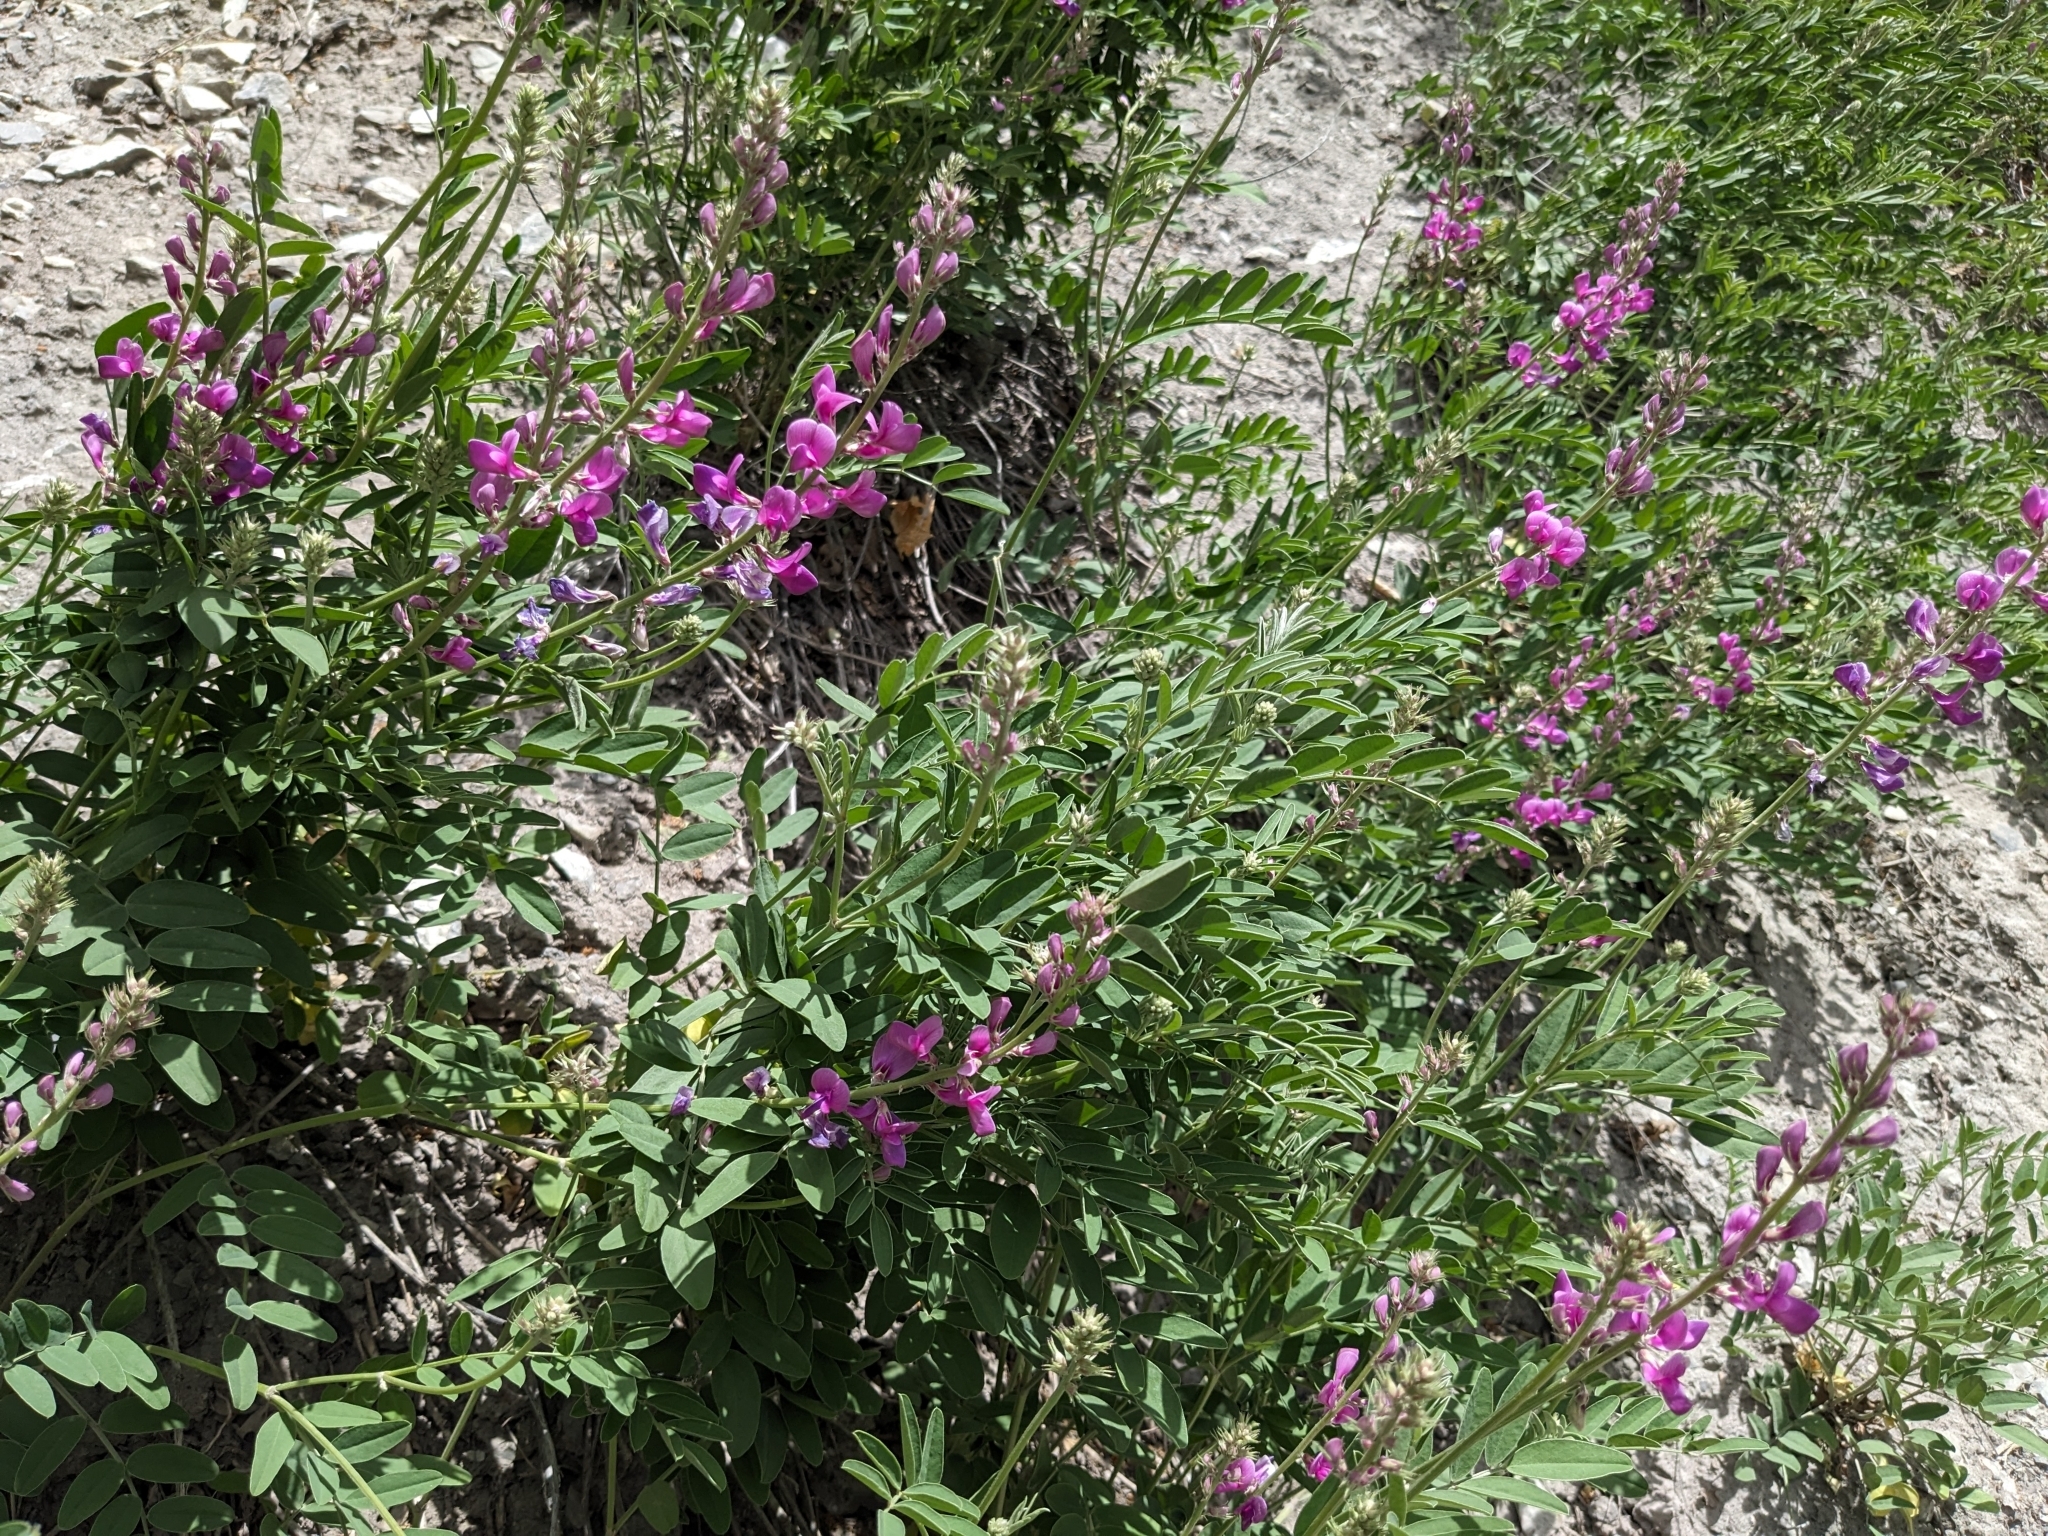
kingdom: Plantae
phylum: Tracheophyta
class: Magnoliopsida
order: Fabales
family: Fabaceae
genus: Hedysarum
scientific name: Hedysarum boreale
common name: Northern sweet-vetch
